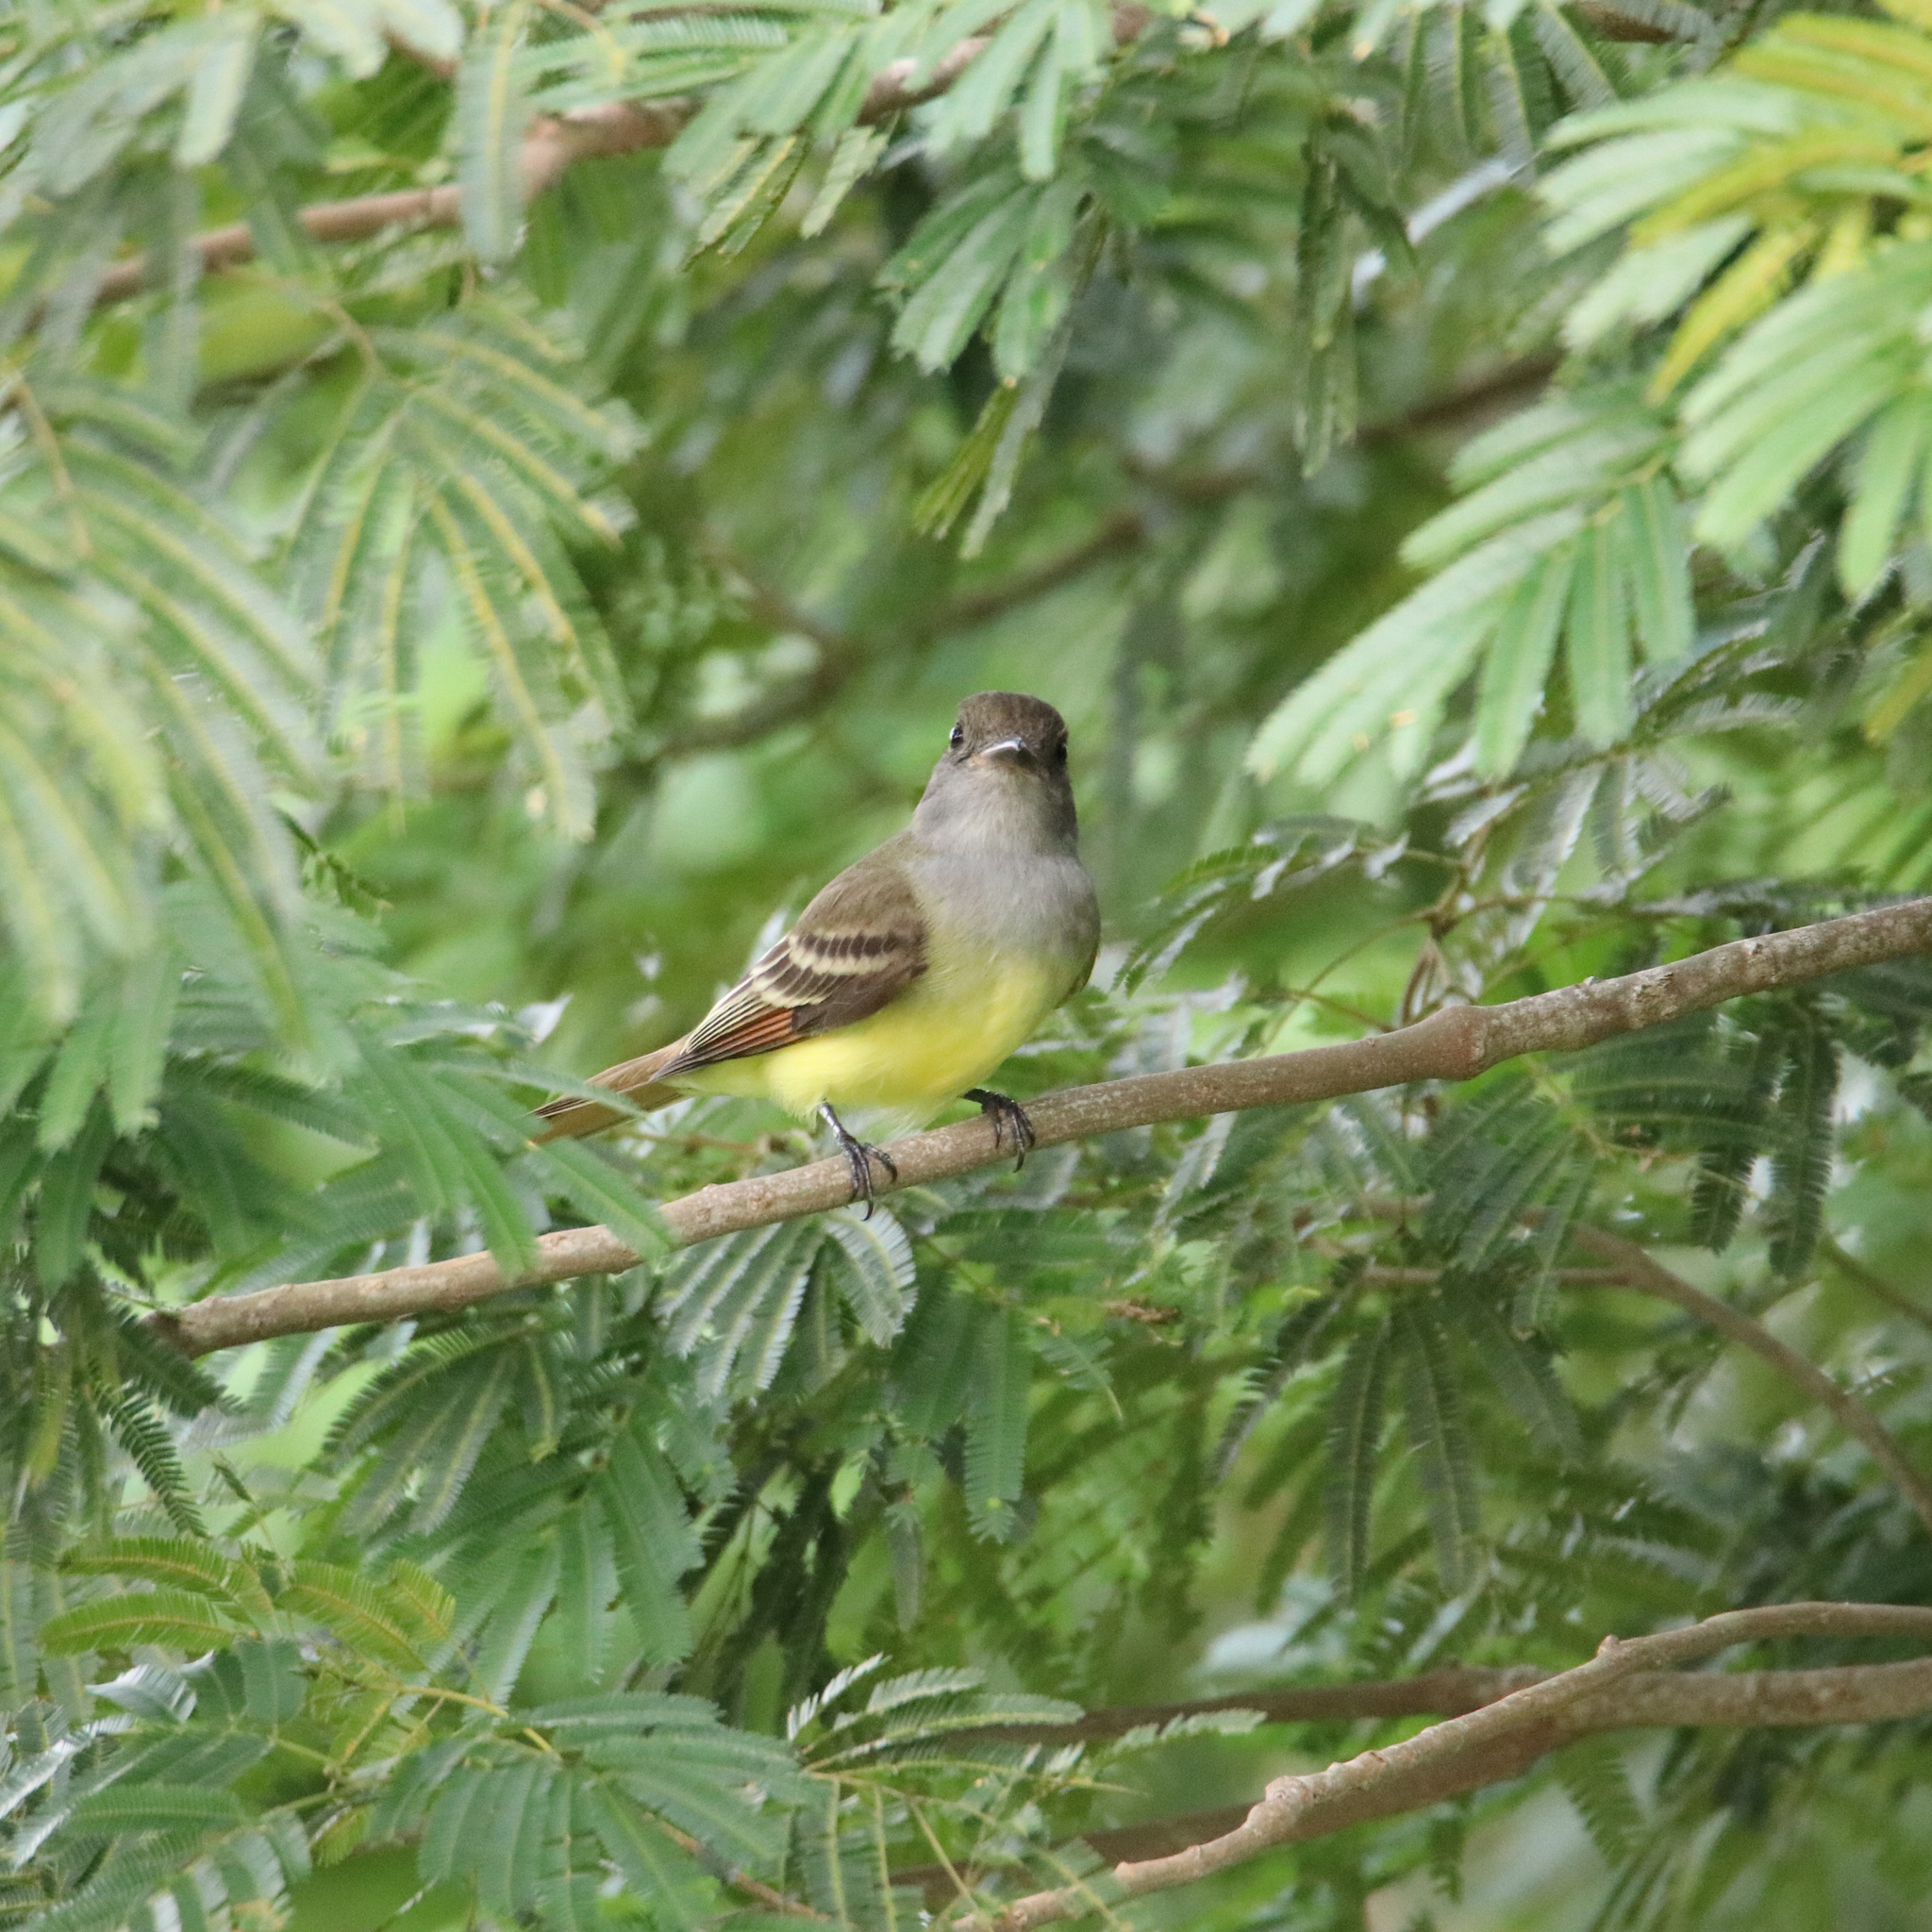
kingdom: Animalia
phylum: Chordata
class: Aves
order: Passeriformes
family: Tyrannidae
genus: Myiarchus
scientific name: Myiarchus crinitus
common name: Great crested flycatcher
